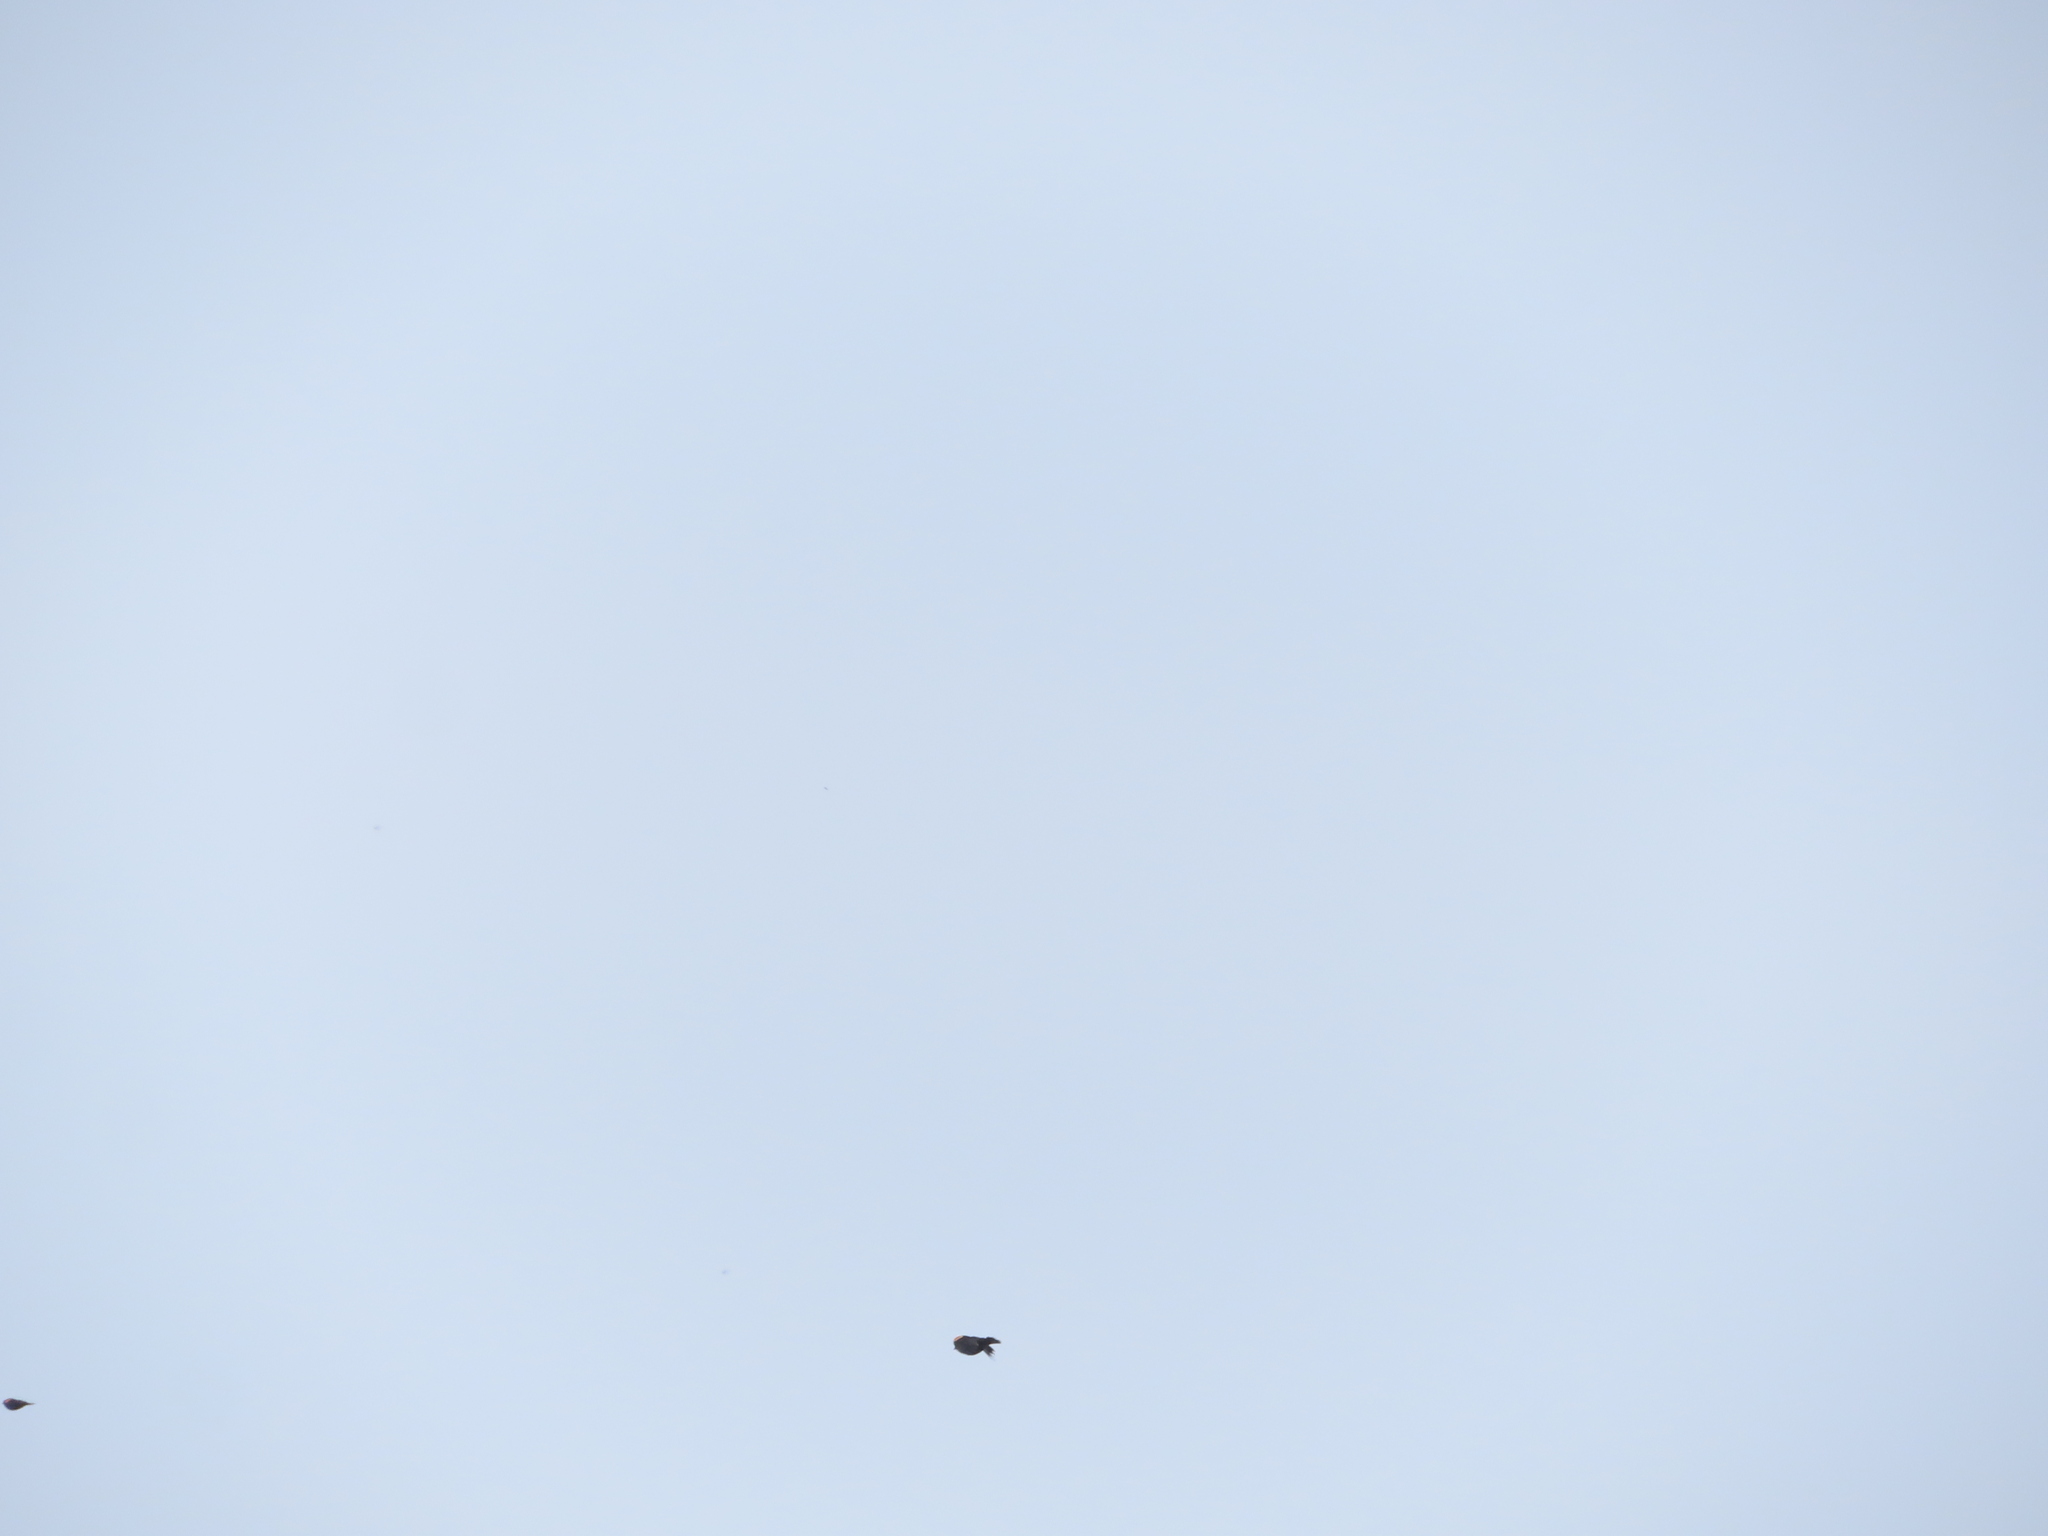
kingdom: Animalia
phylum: Chordata
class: Aves
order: Passeriformes
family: Icteridae
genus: Agelaius
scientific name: Agelaius phoeniceus
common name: Red-winged blackbird
